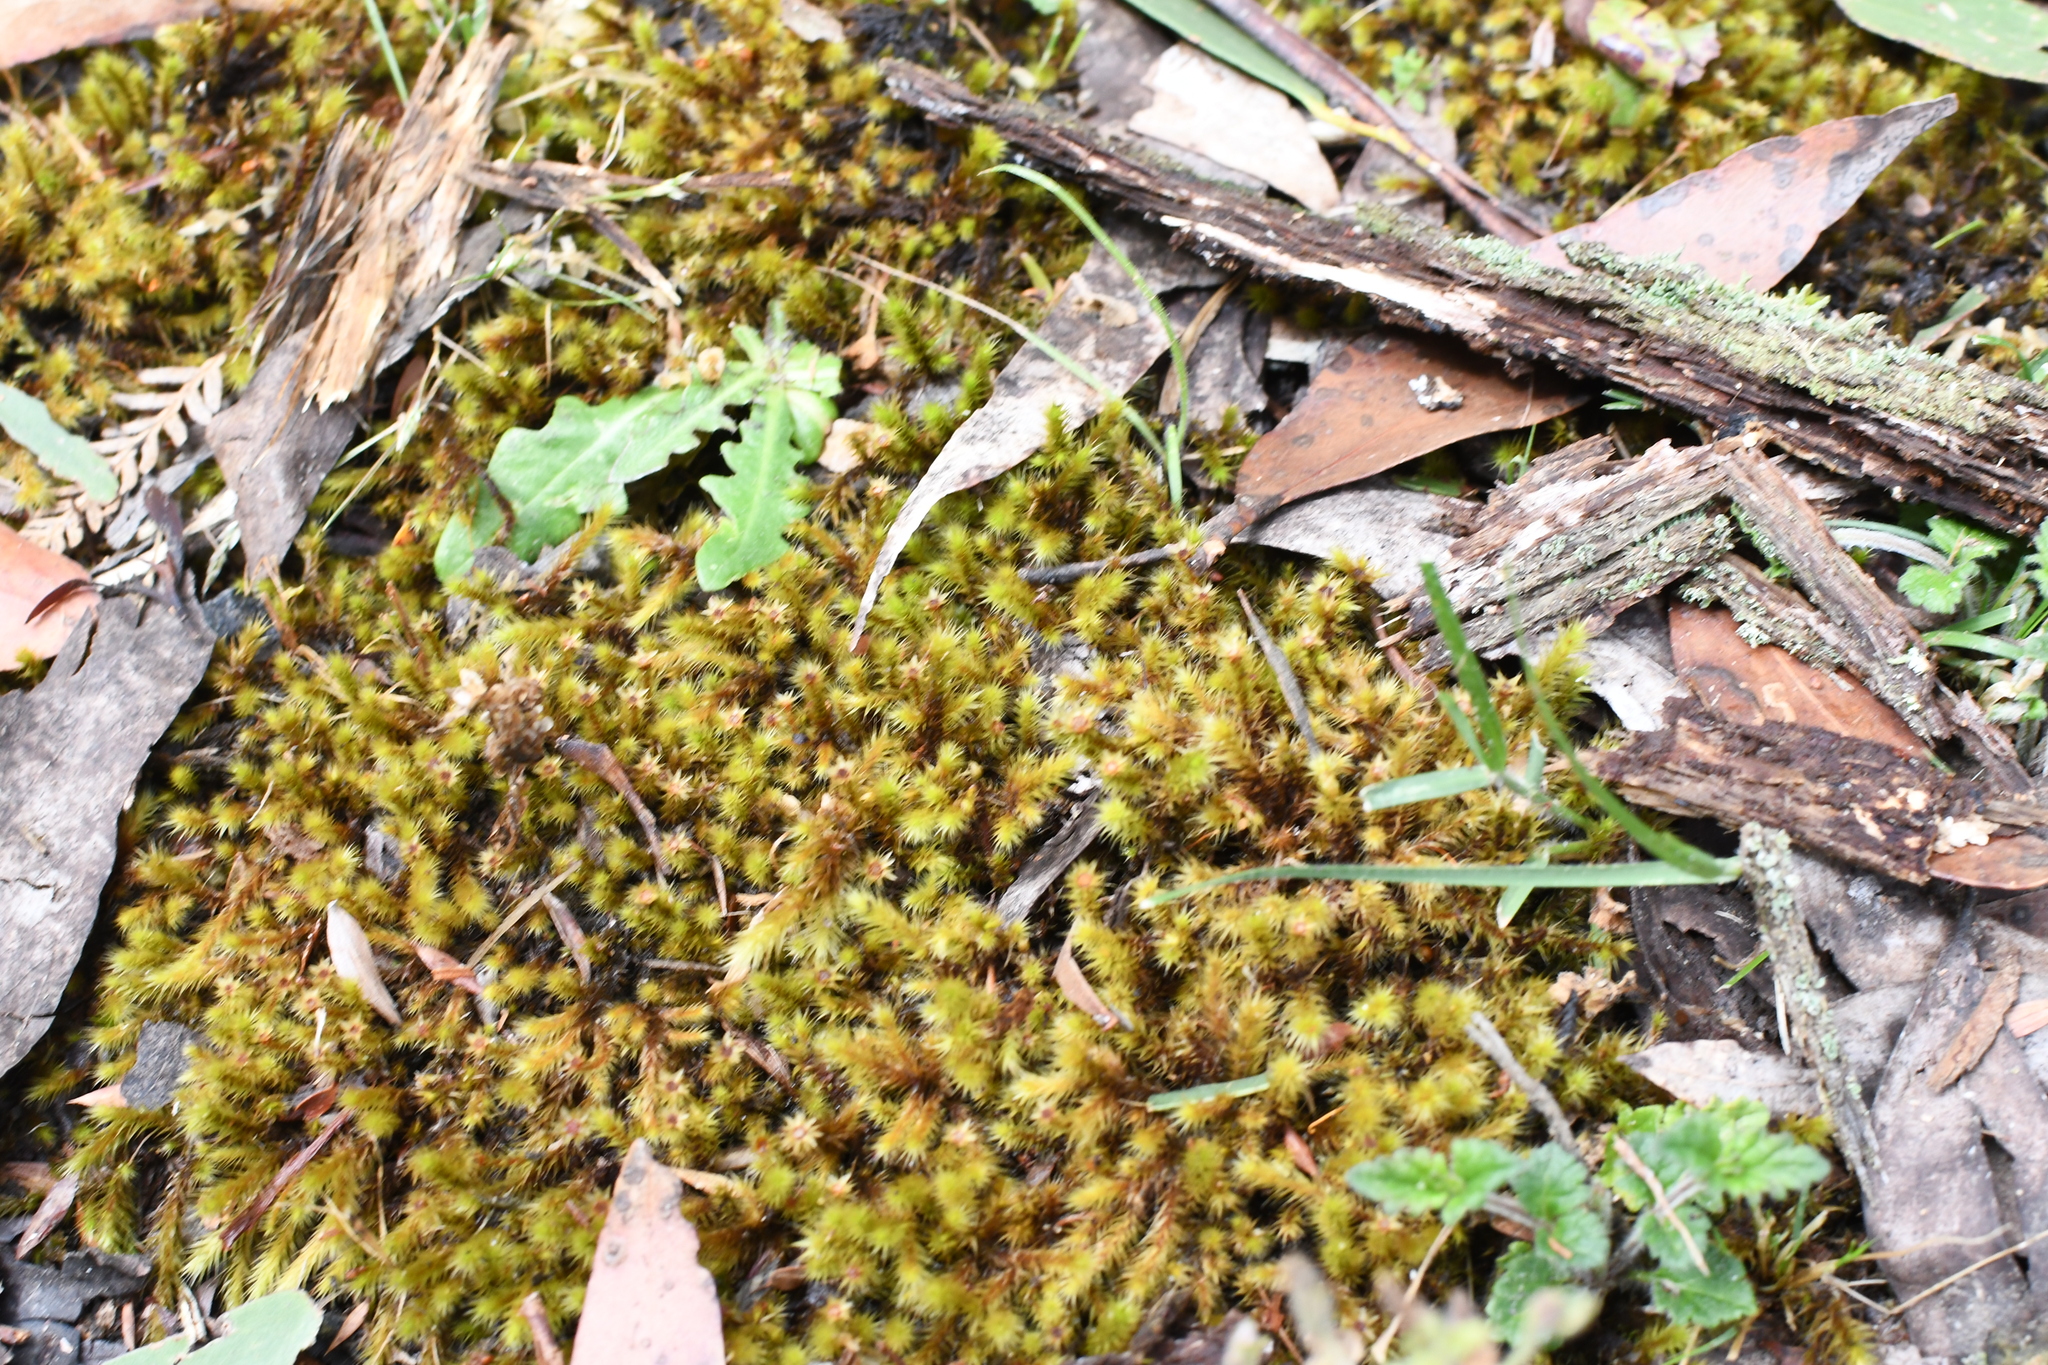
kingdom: Plantae
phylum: Bryophyta
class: Bryopsida
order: Bartramiales
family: Bartramiaceae
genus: Breutelia
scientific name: Breutelia affinis
